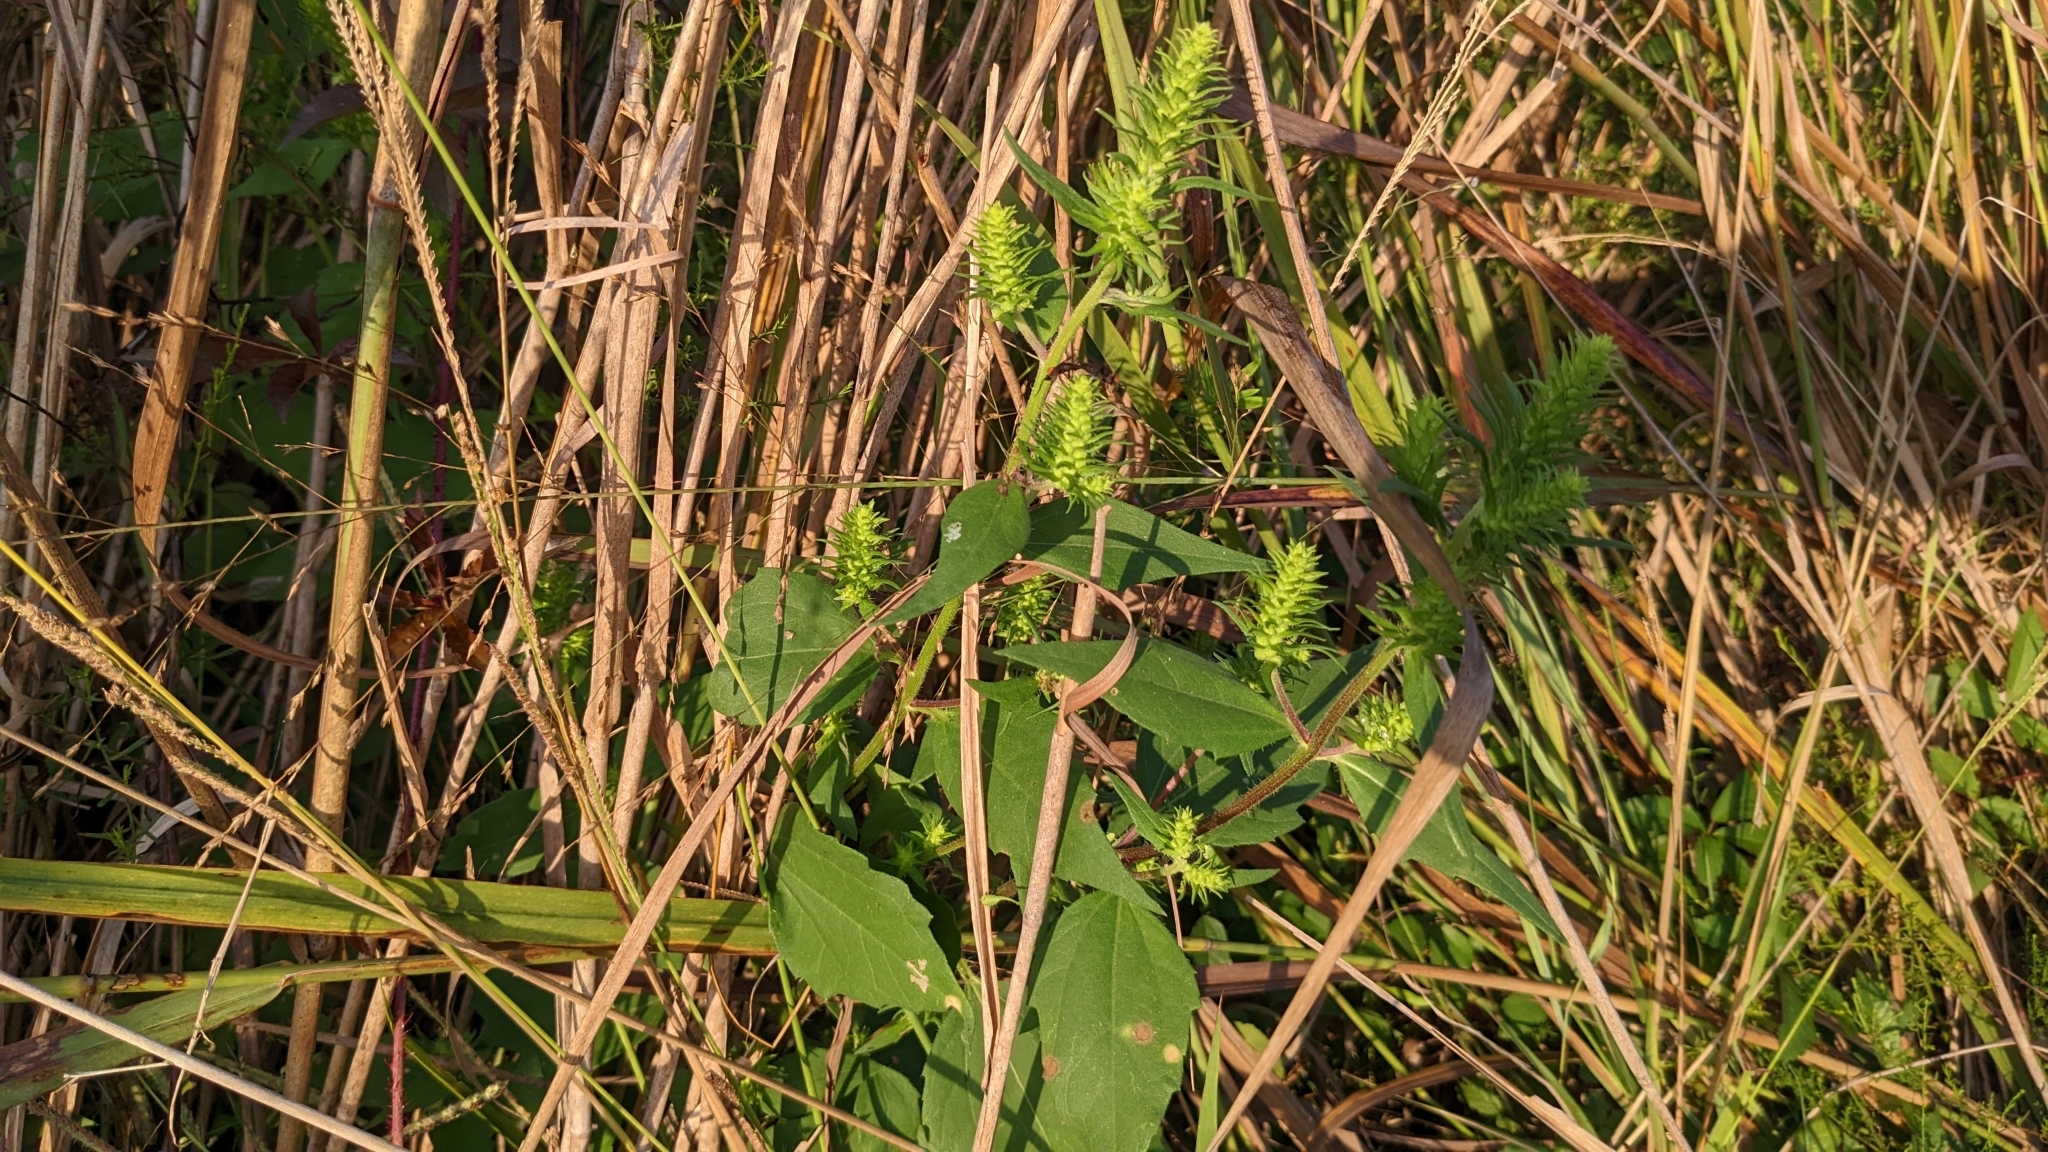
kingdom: Plantae
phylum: Tracheophyta
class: Magnoliopsida
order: Asterales
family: Asteraceae
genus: Iva
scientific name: Iva annua
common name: Marsh-elder
